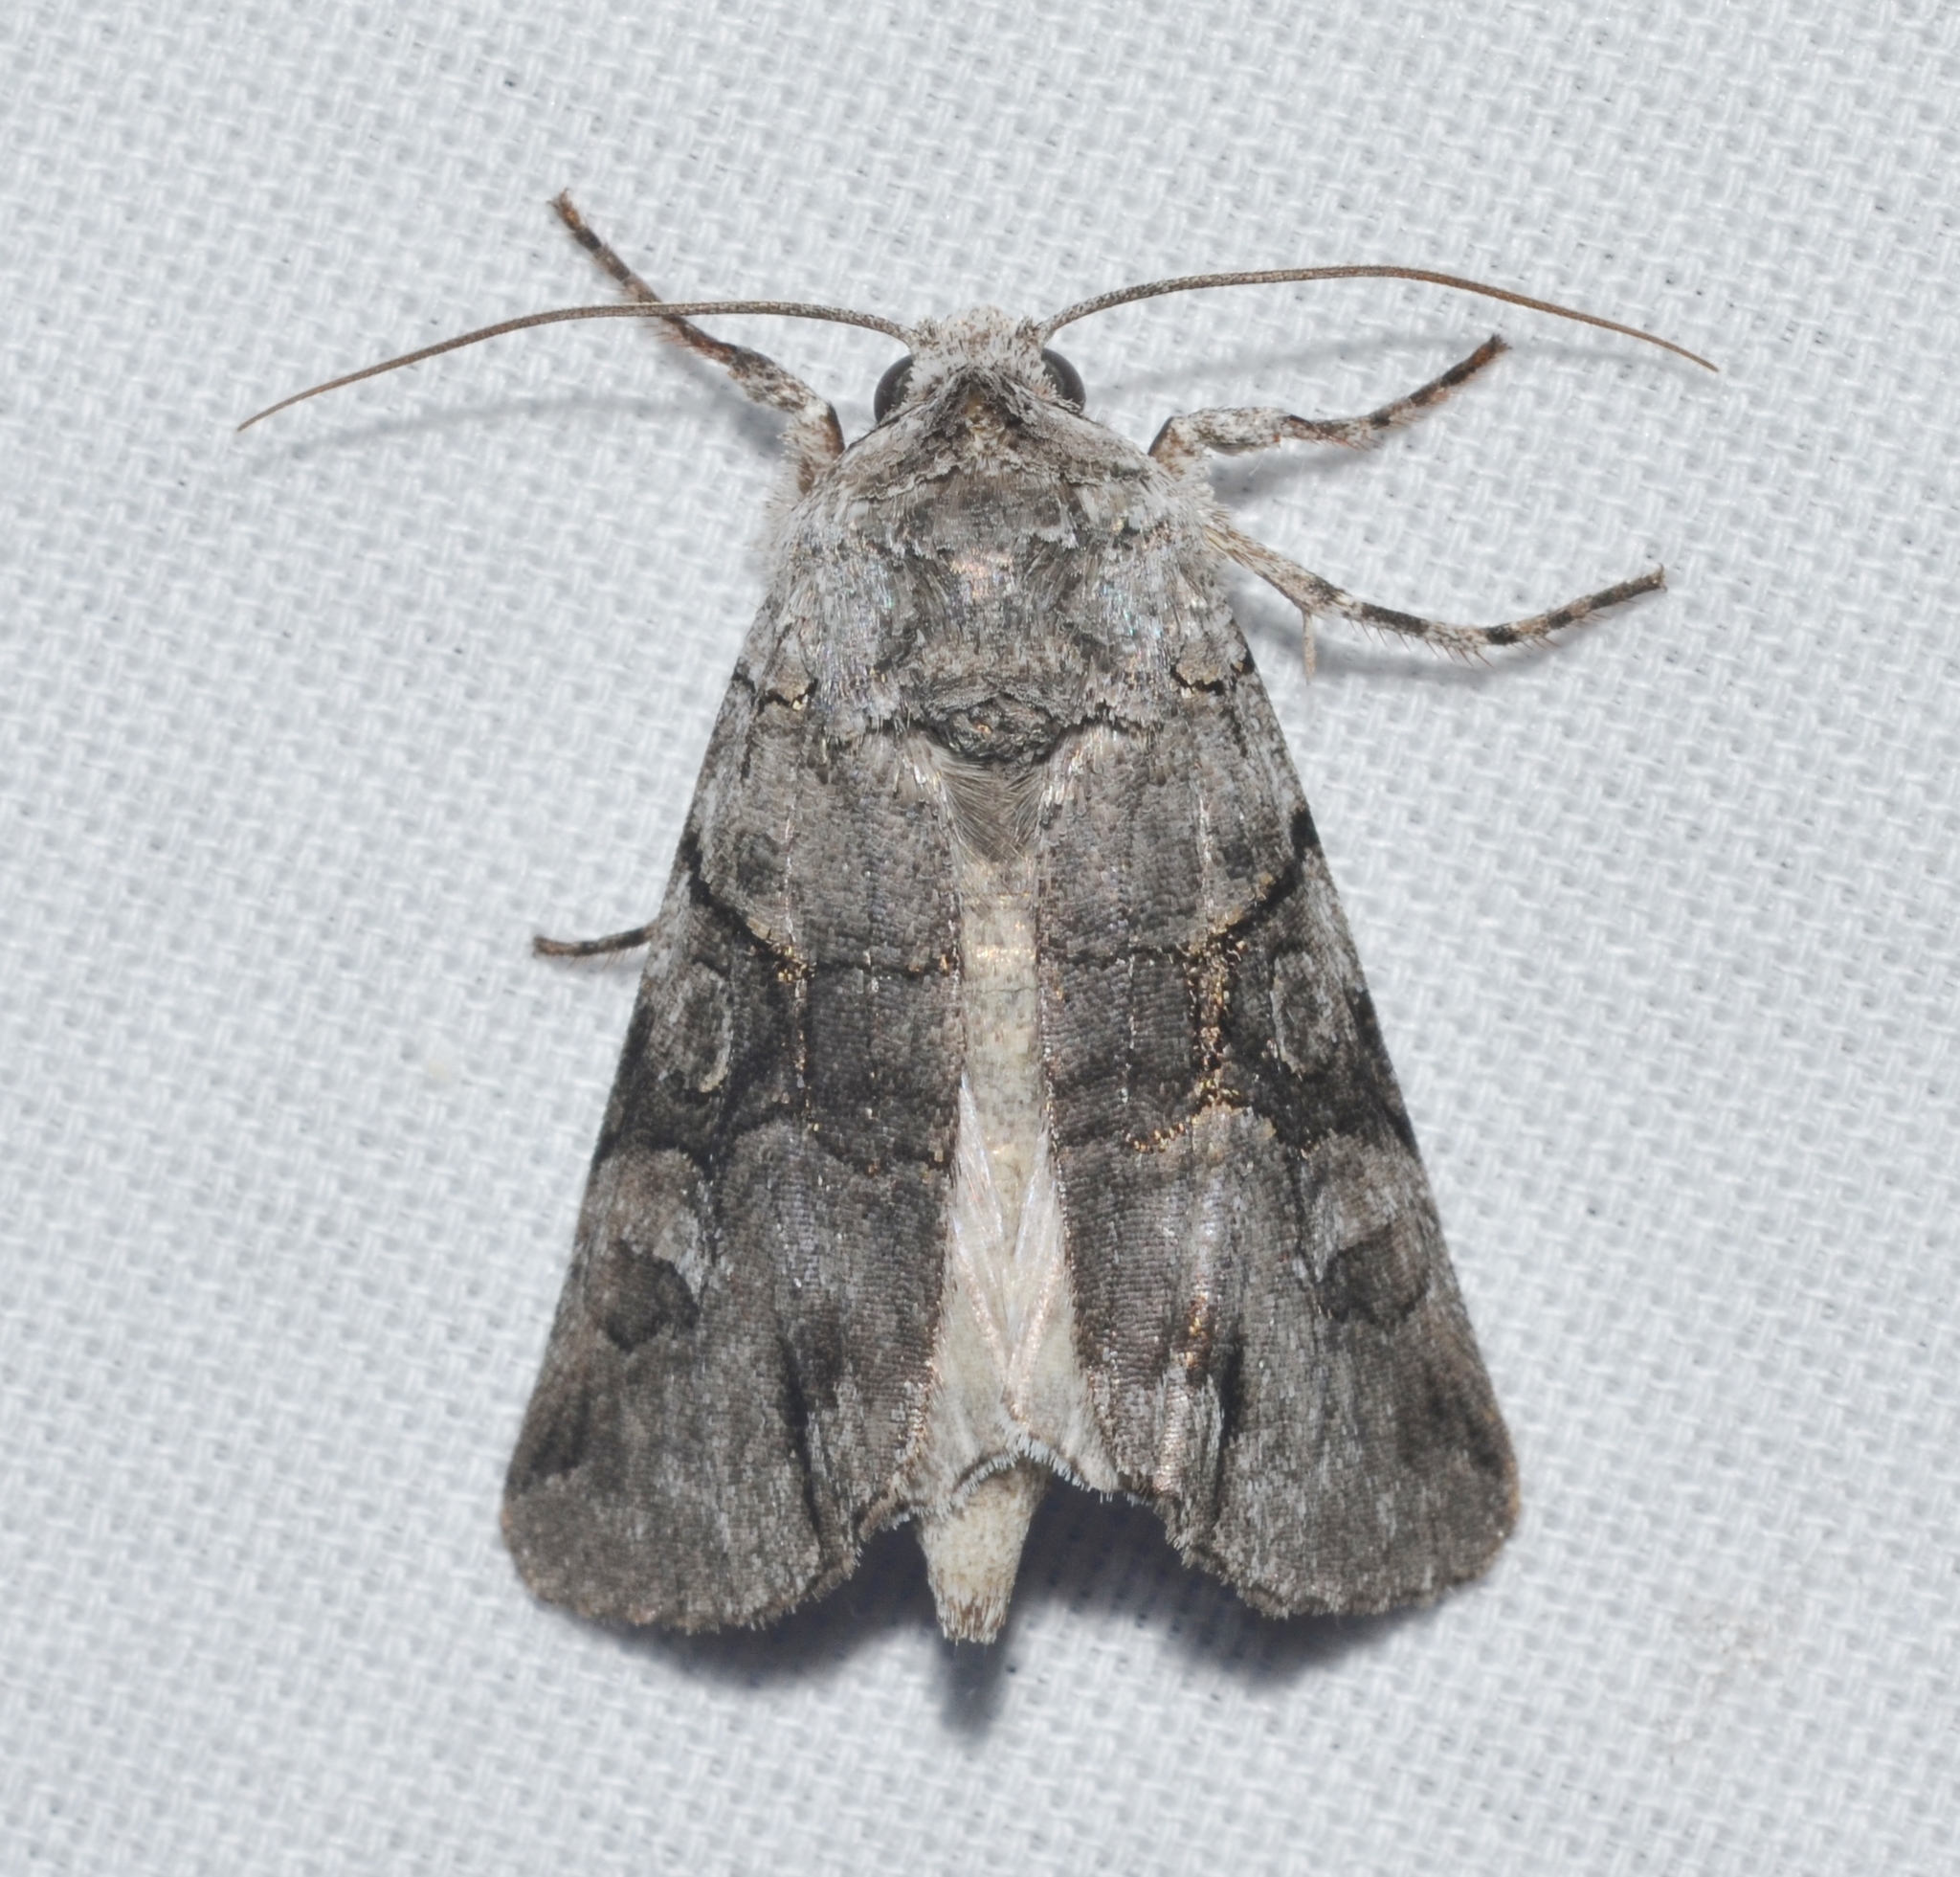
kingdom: Animalia
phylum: Arthropoda
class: Insecta
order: Lepidoptera
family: Noctuidae
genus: Sympistis
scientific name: Sympistis chionanthi
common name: Fringe-tree sallow
